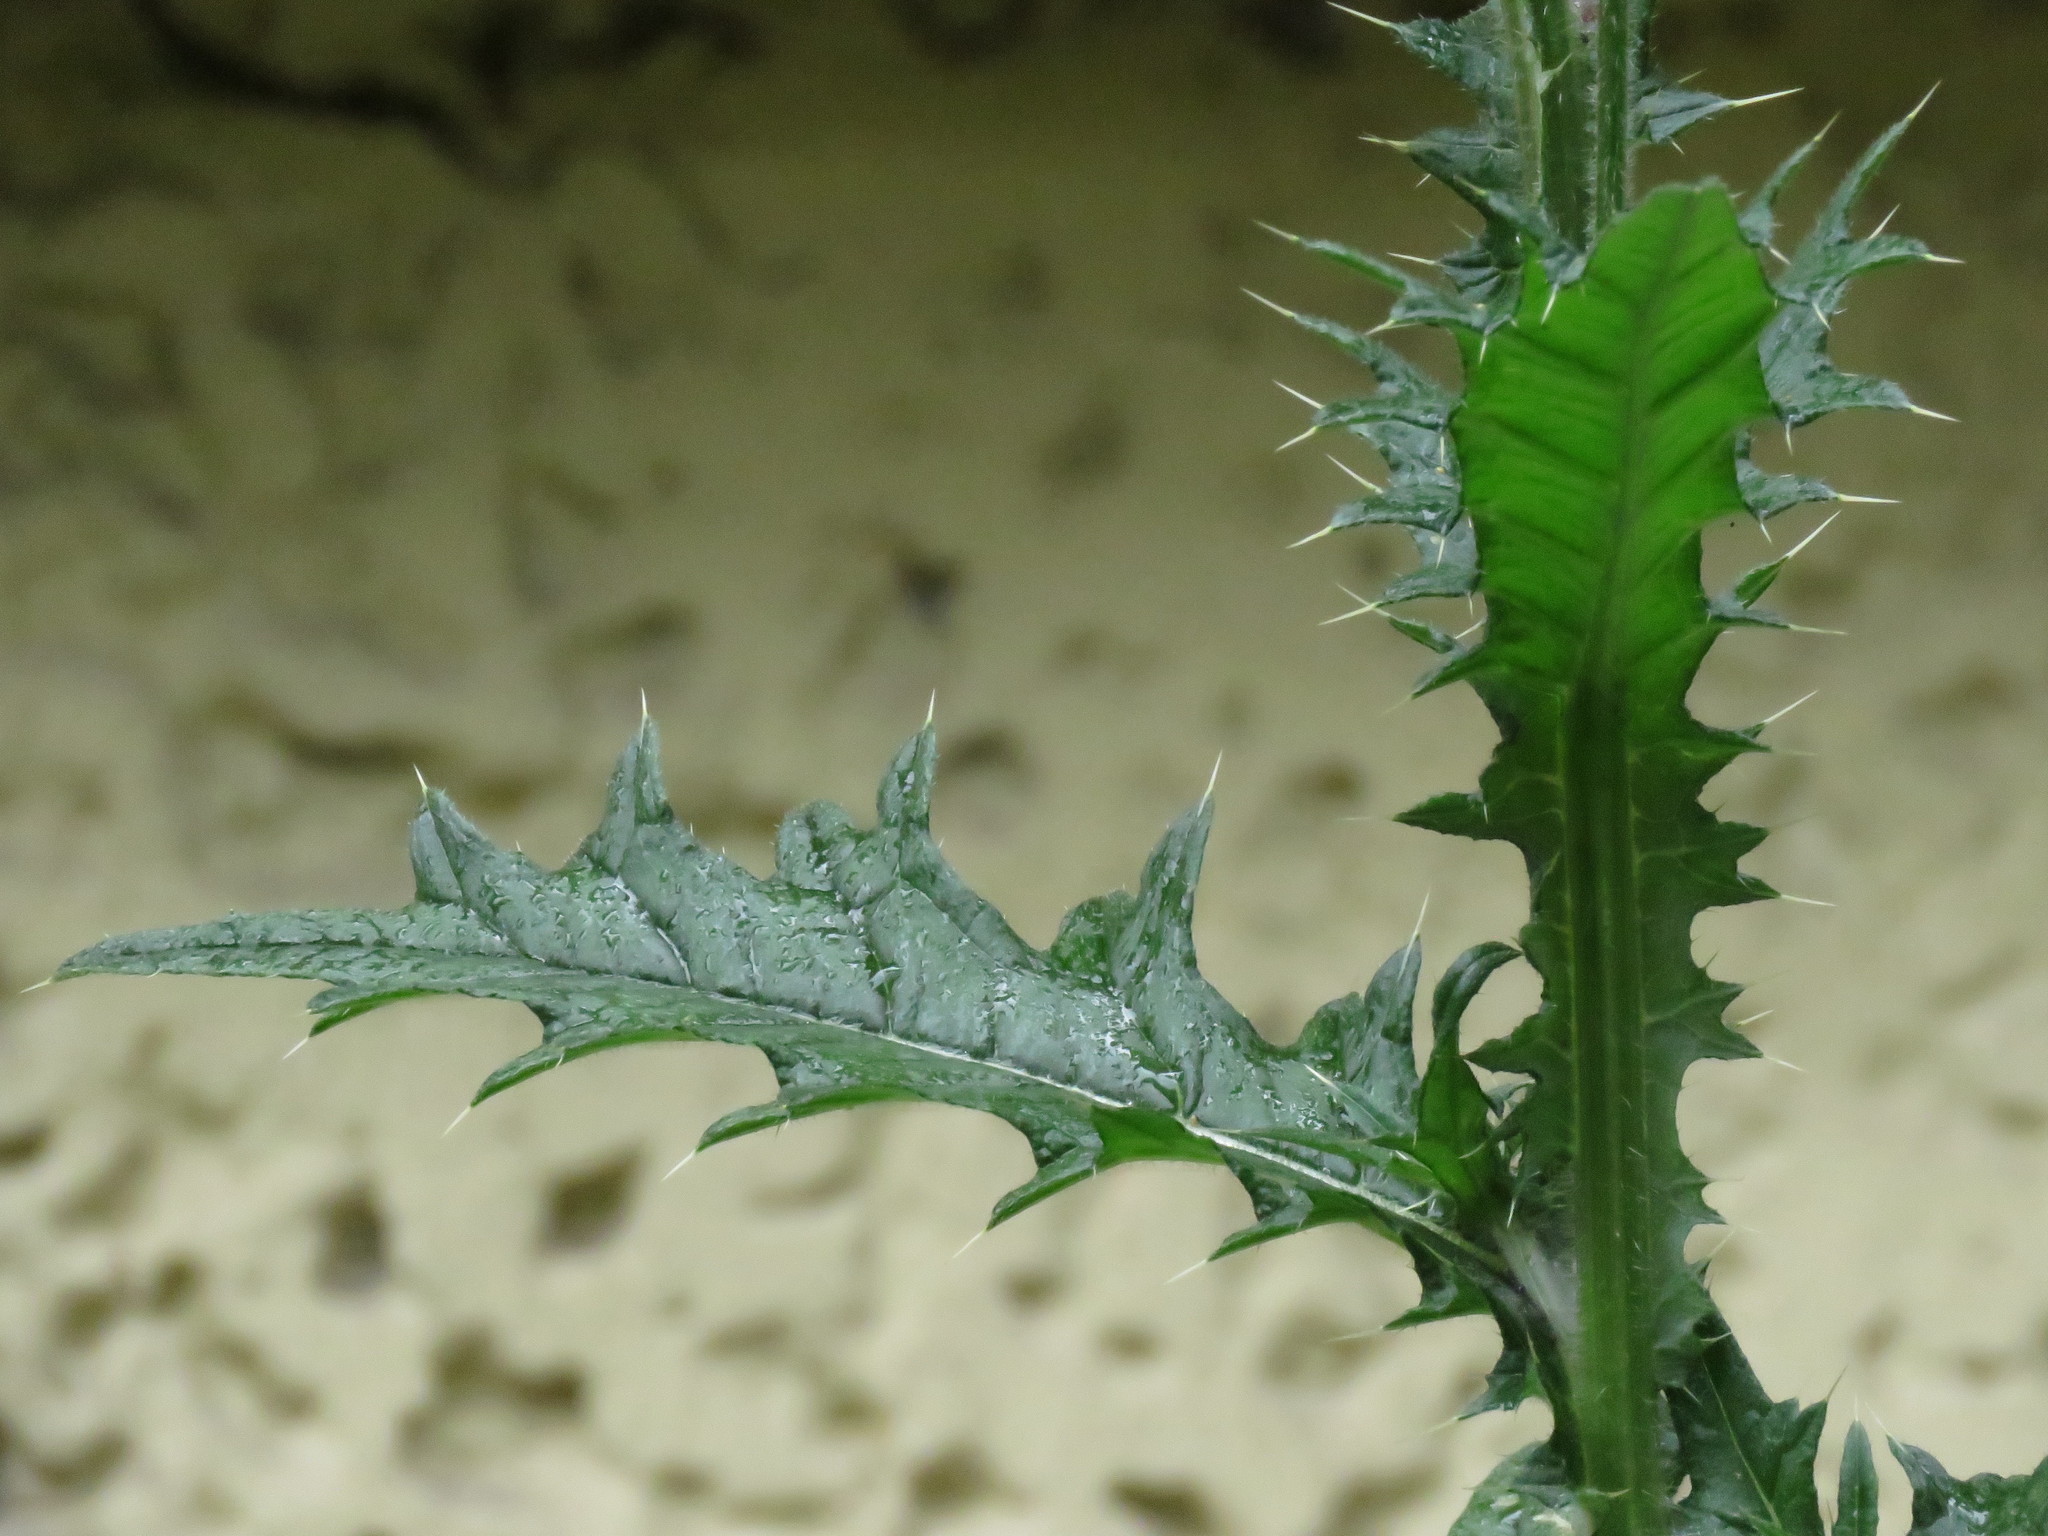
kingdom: Plantae
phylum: Tracheophyta
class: Magnoliopsida
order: Asterales
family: Asteraceae
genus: Cirsium
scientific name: Cirsium vulgare
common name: Bull thistle
